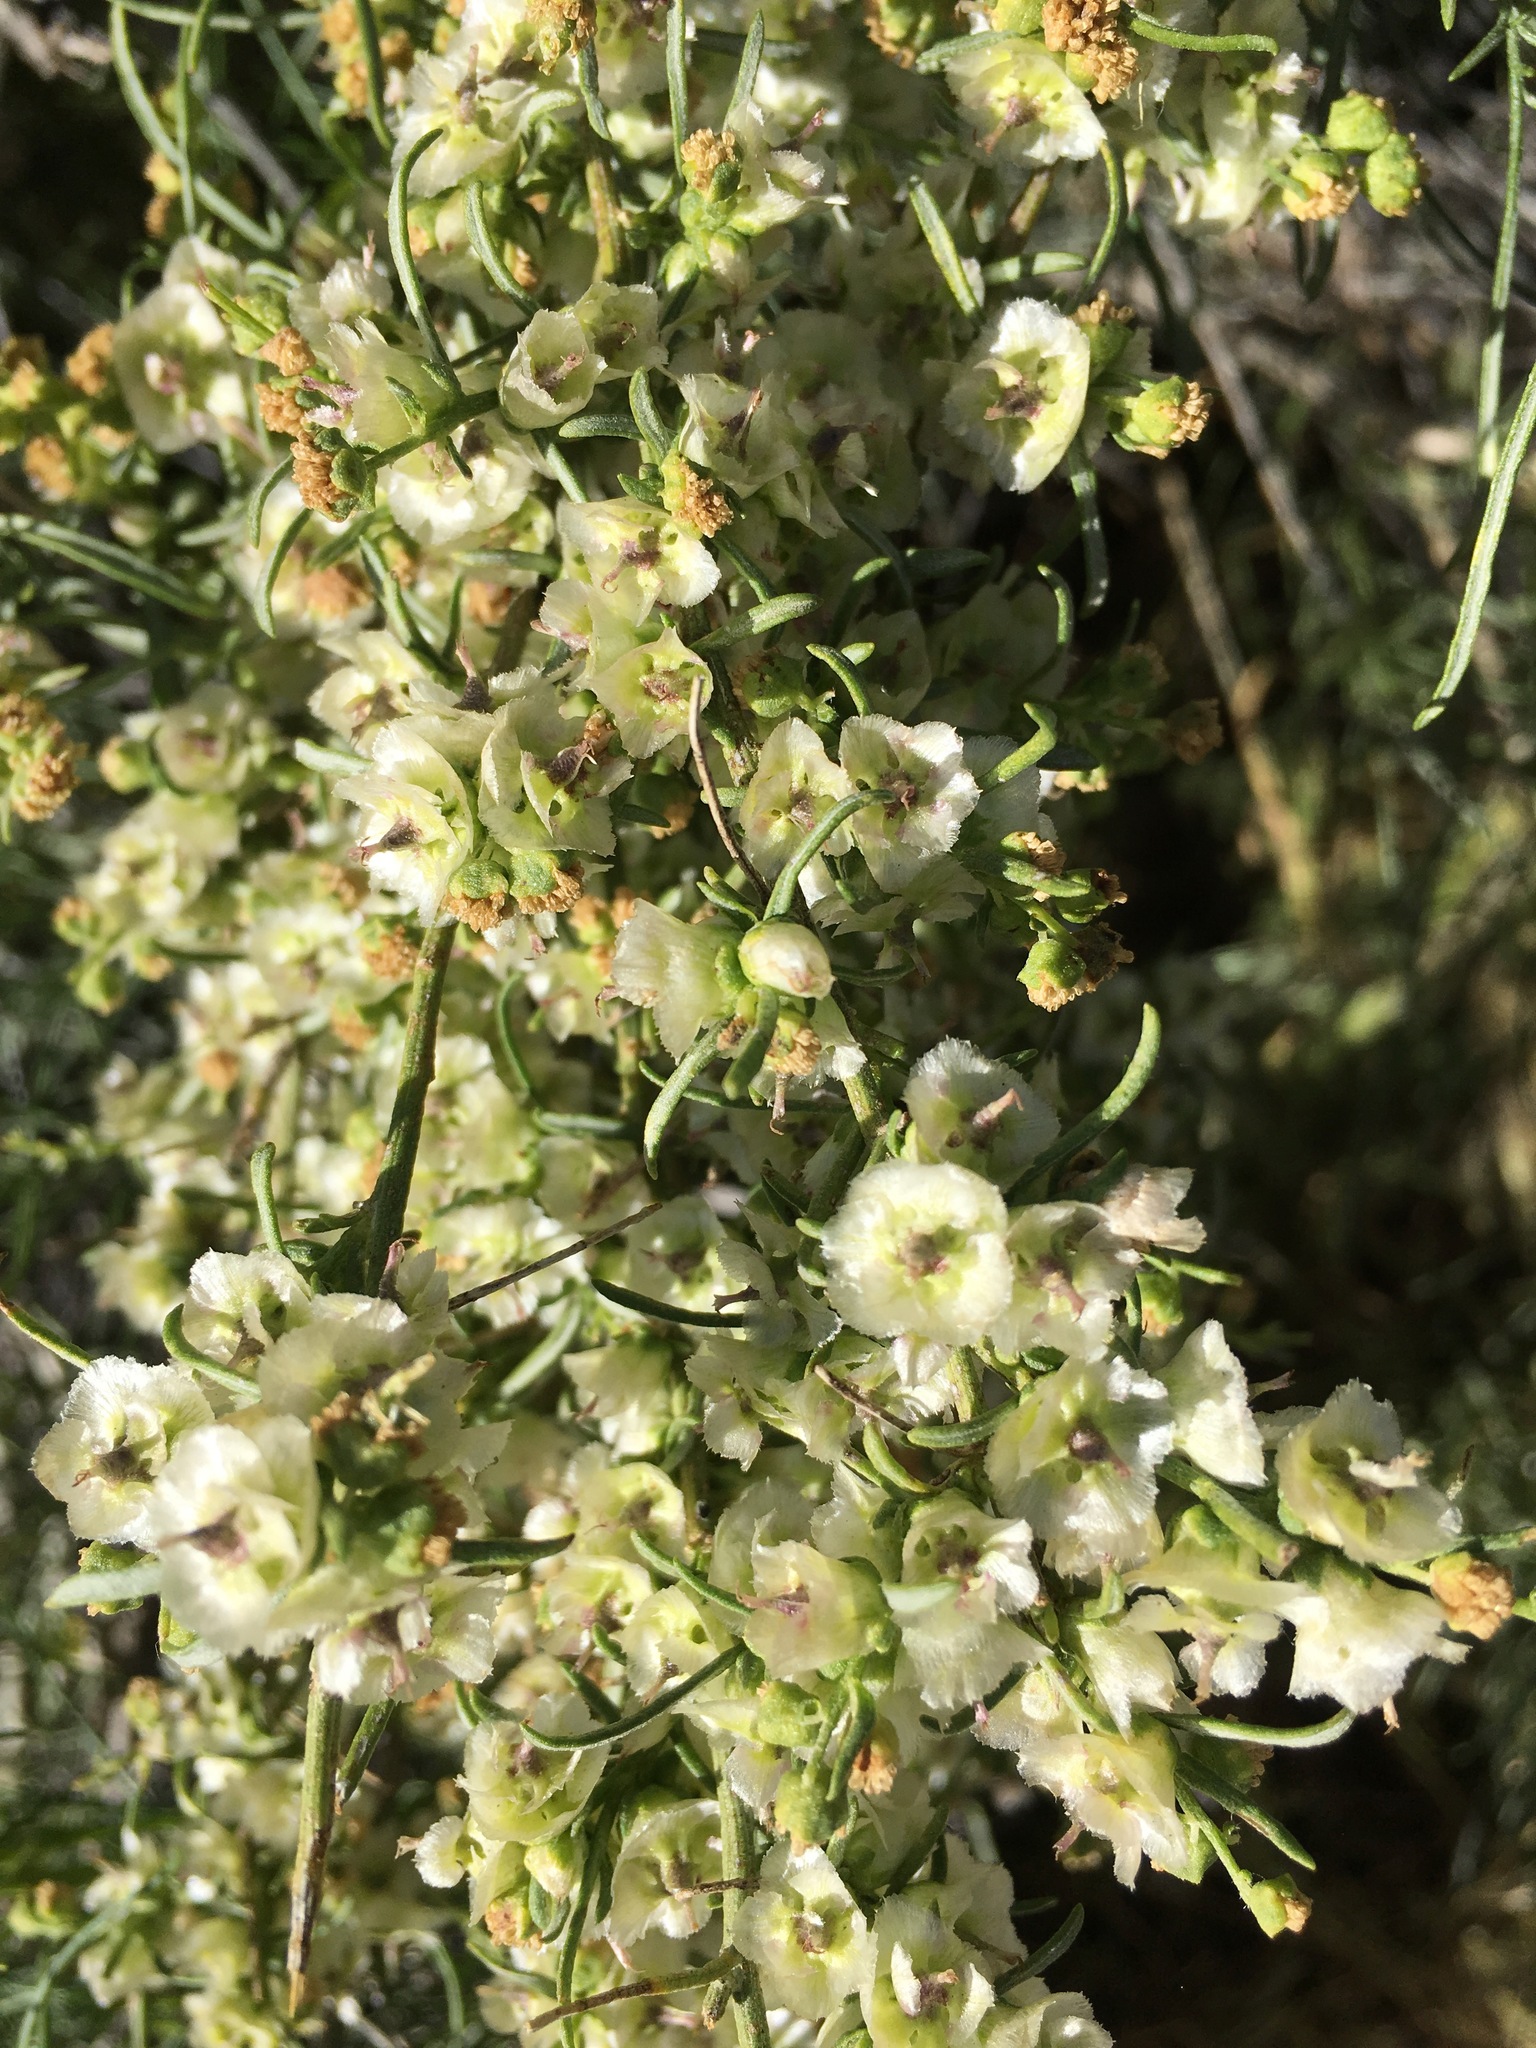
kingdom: Plantae
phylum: Tracheophyta
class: Magnoliopsida
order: Asterales
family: Asteraceae
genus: Ambrosia
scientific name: Ambrosia salsola
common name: Burrobrush
